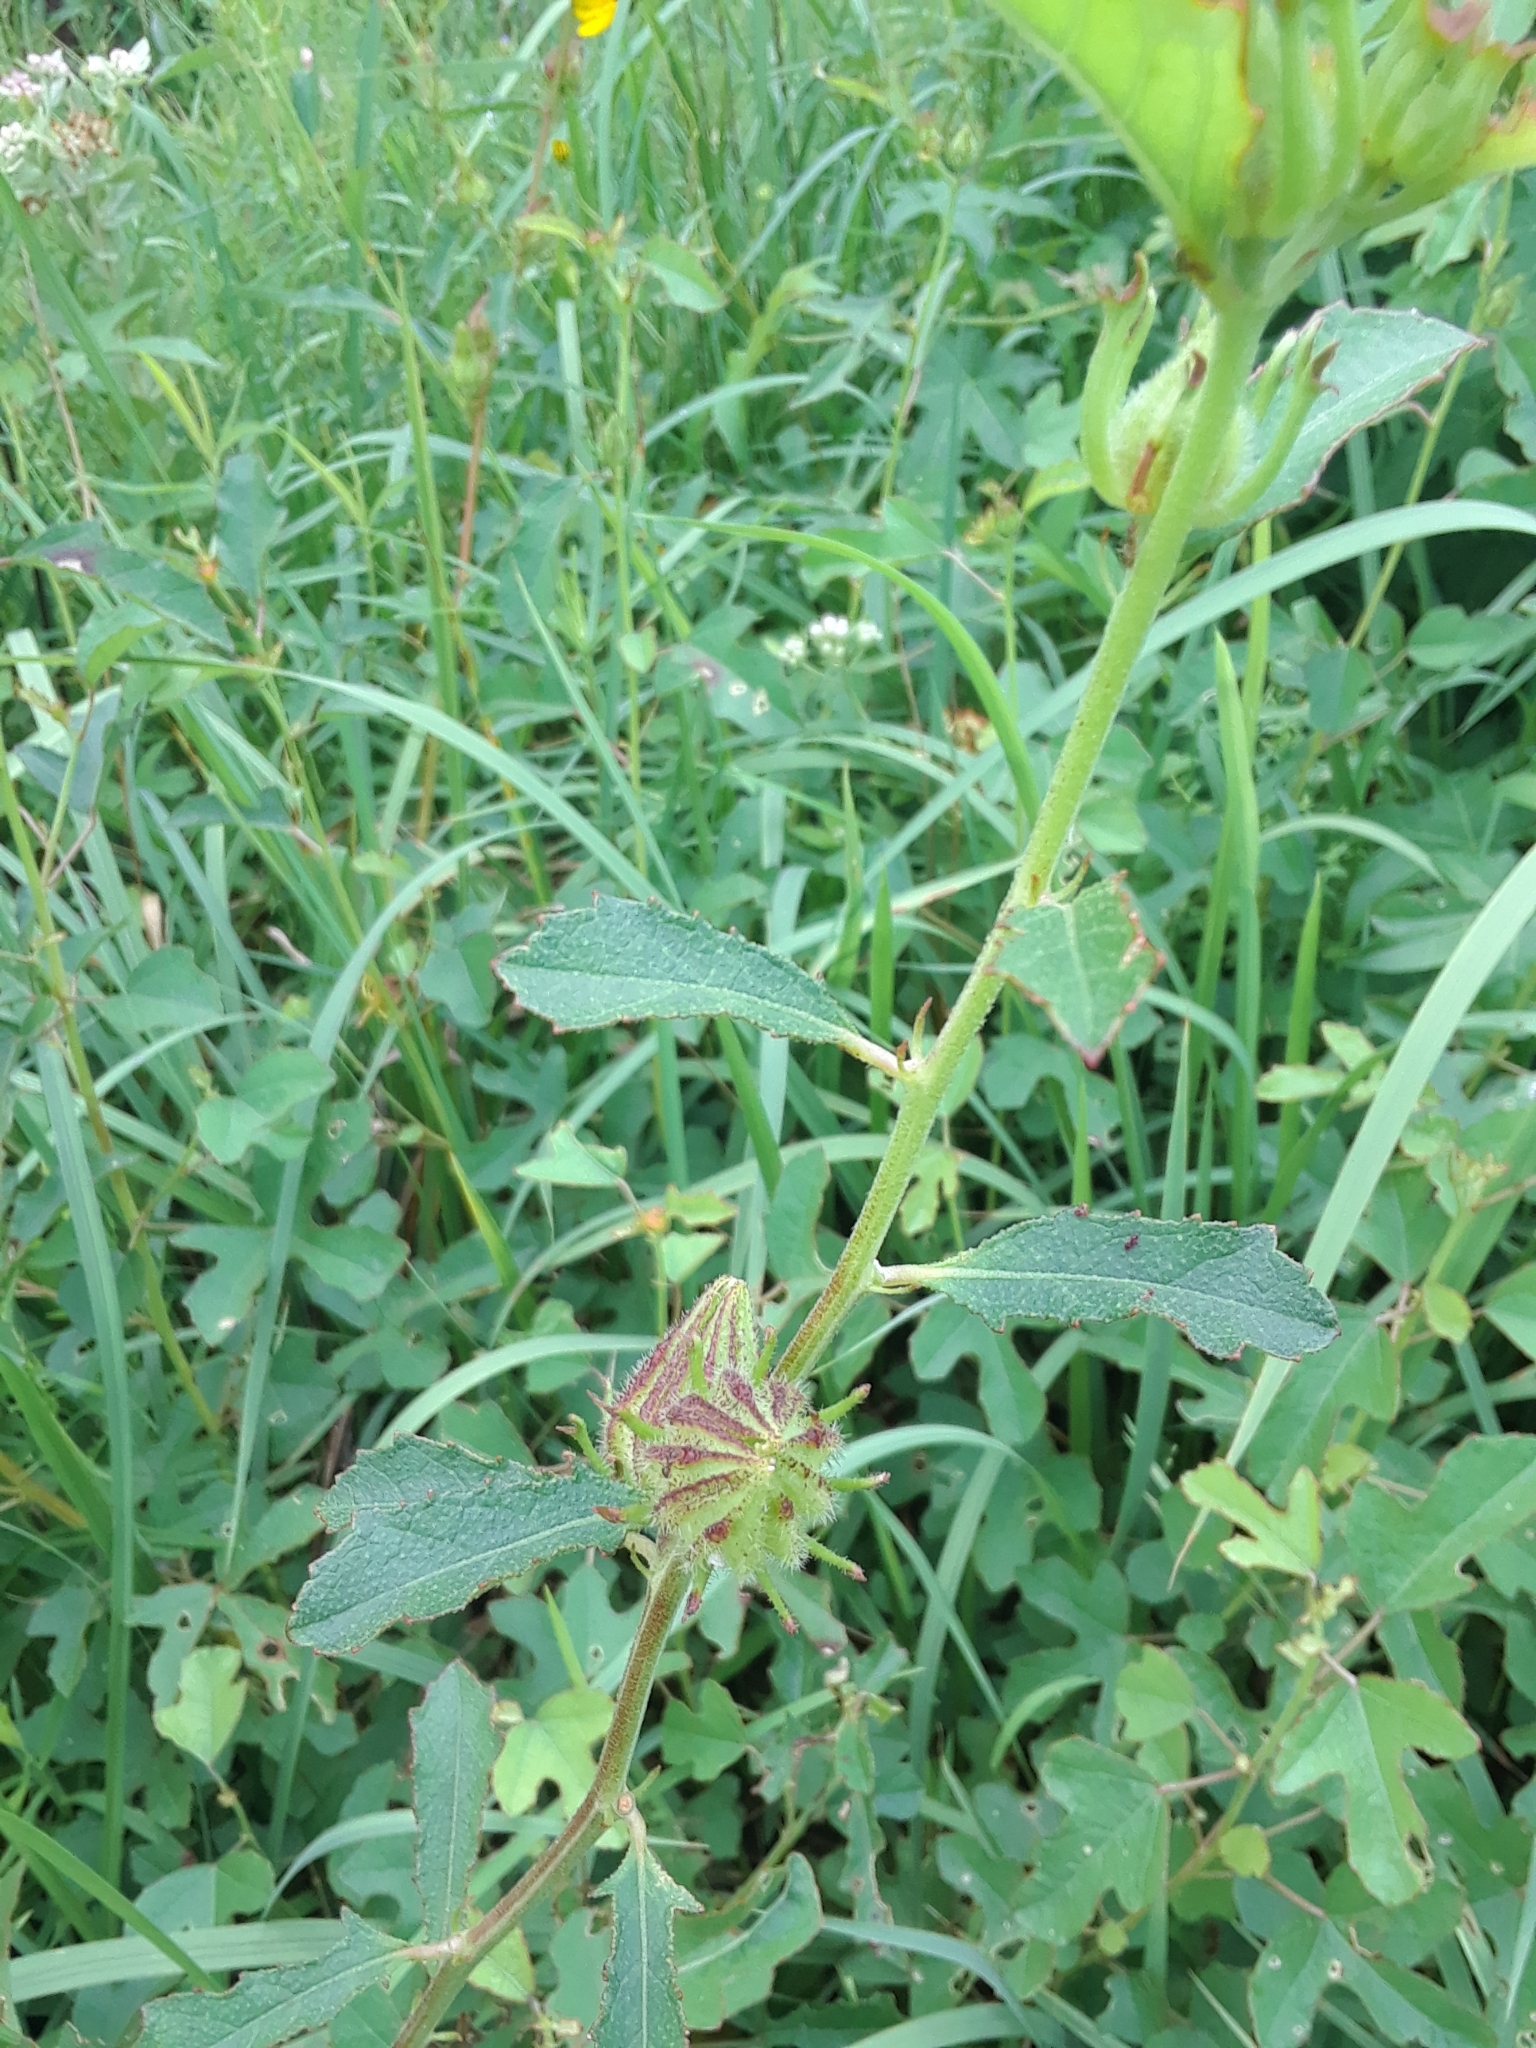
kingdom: Plantae
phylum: Tracheophyta
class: Magnoliopsida
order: Malvales
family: Malvaceae
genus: Hibiscus
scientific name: Hibiscus aculeatus
